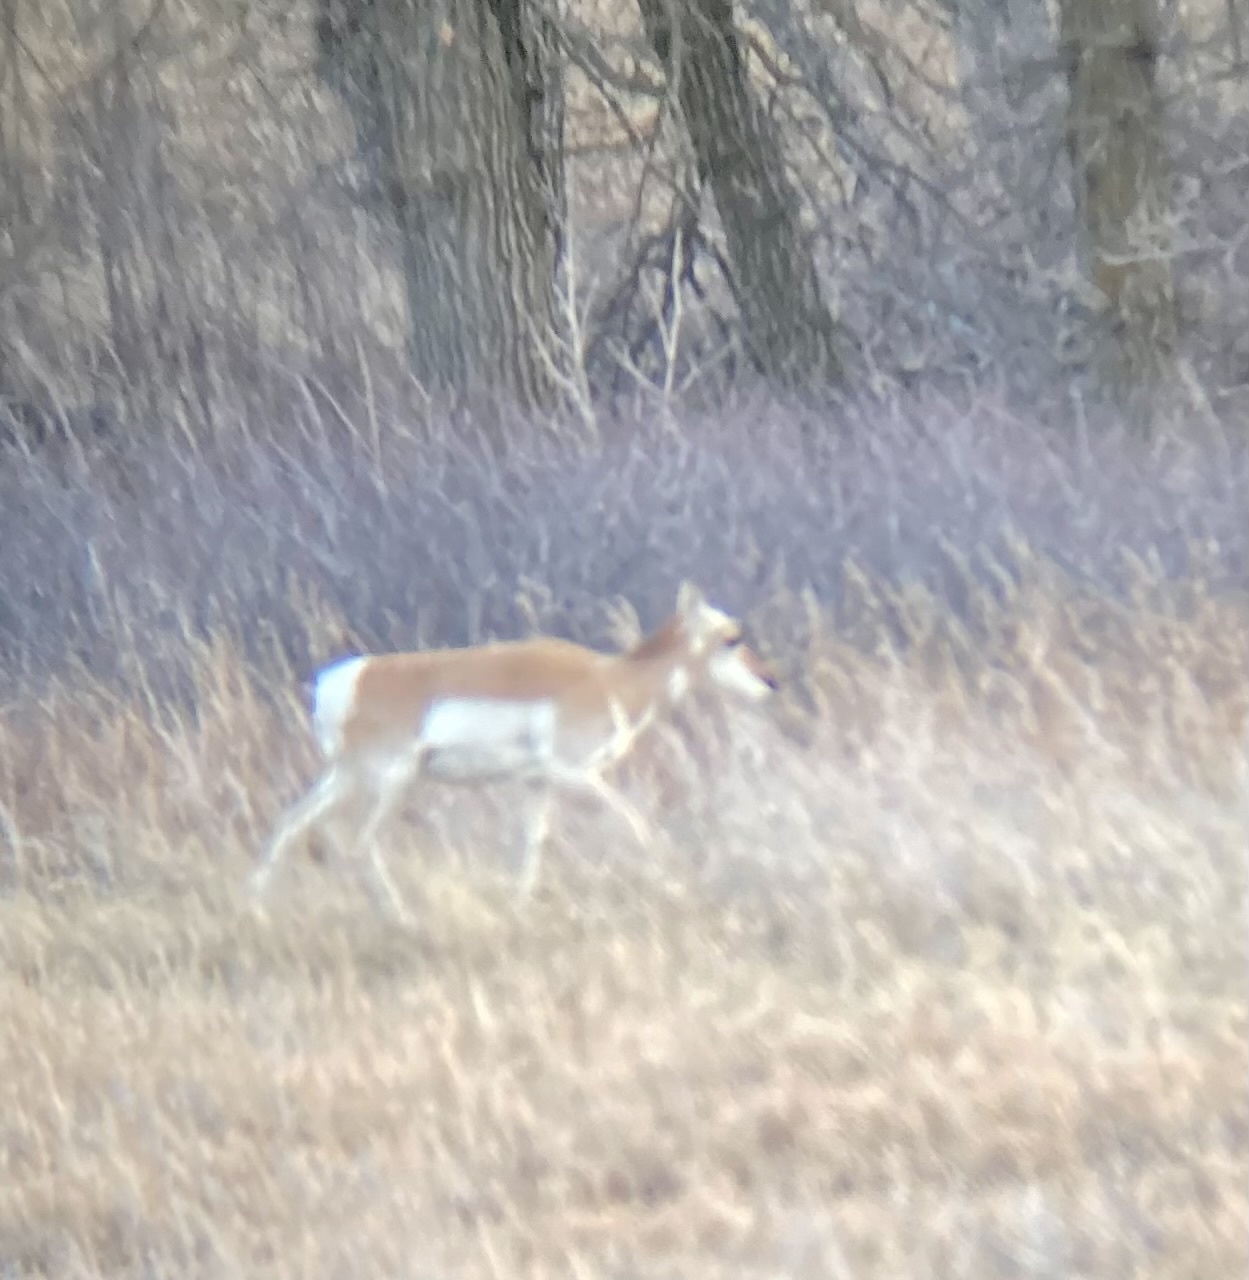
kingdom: Animalia
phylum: Chordata
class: Mammalia
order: Artiodactyla
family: Antilocapridae
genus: Antilocapra
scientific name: Antilocapra americana
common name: Pronghorn
